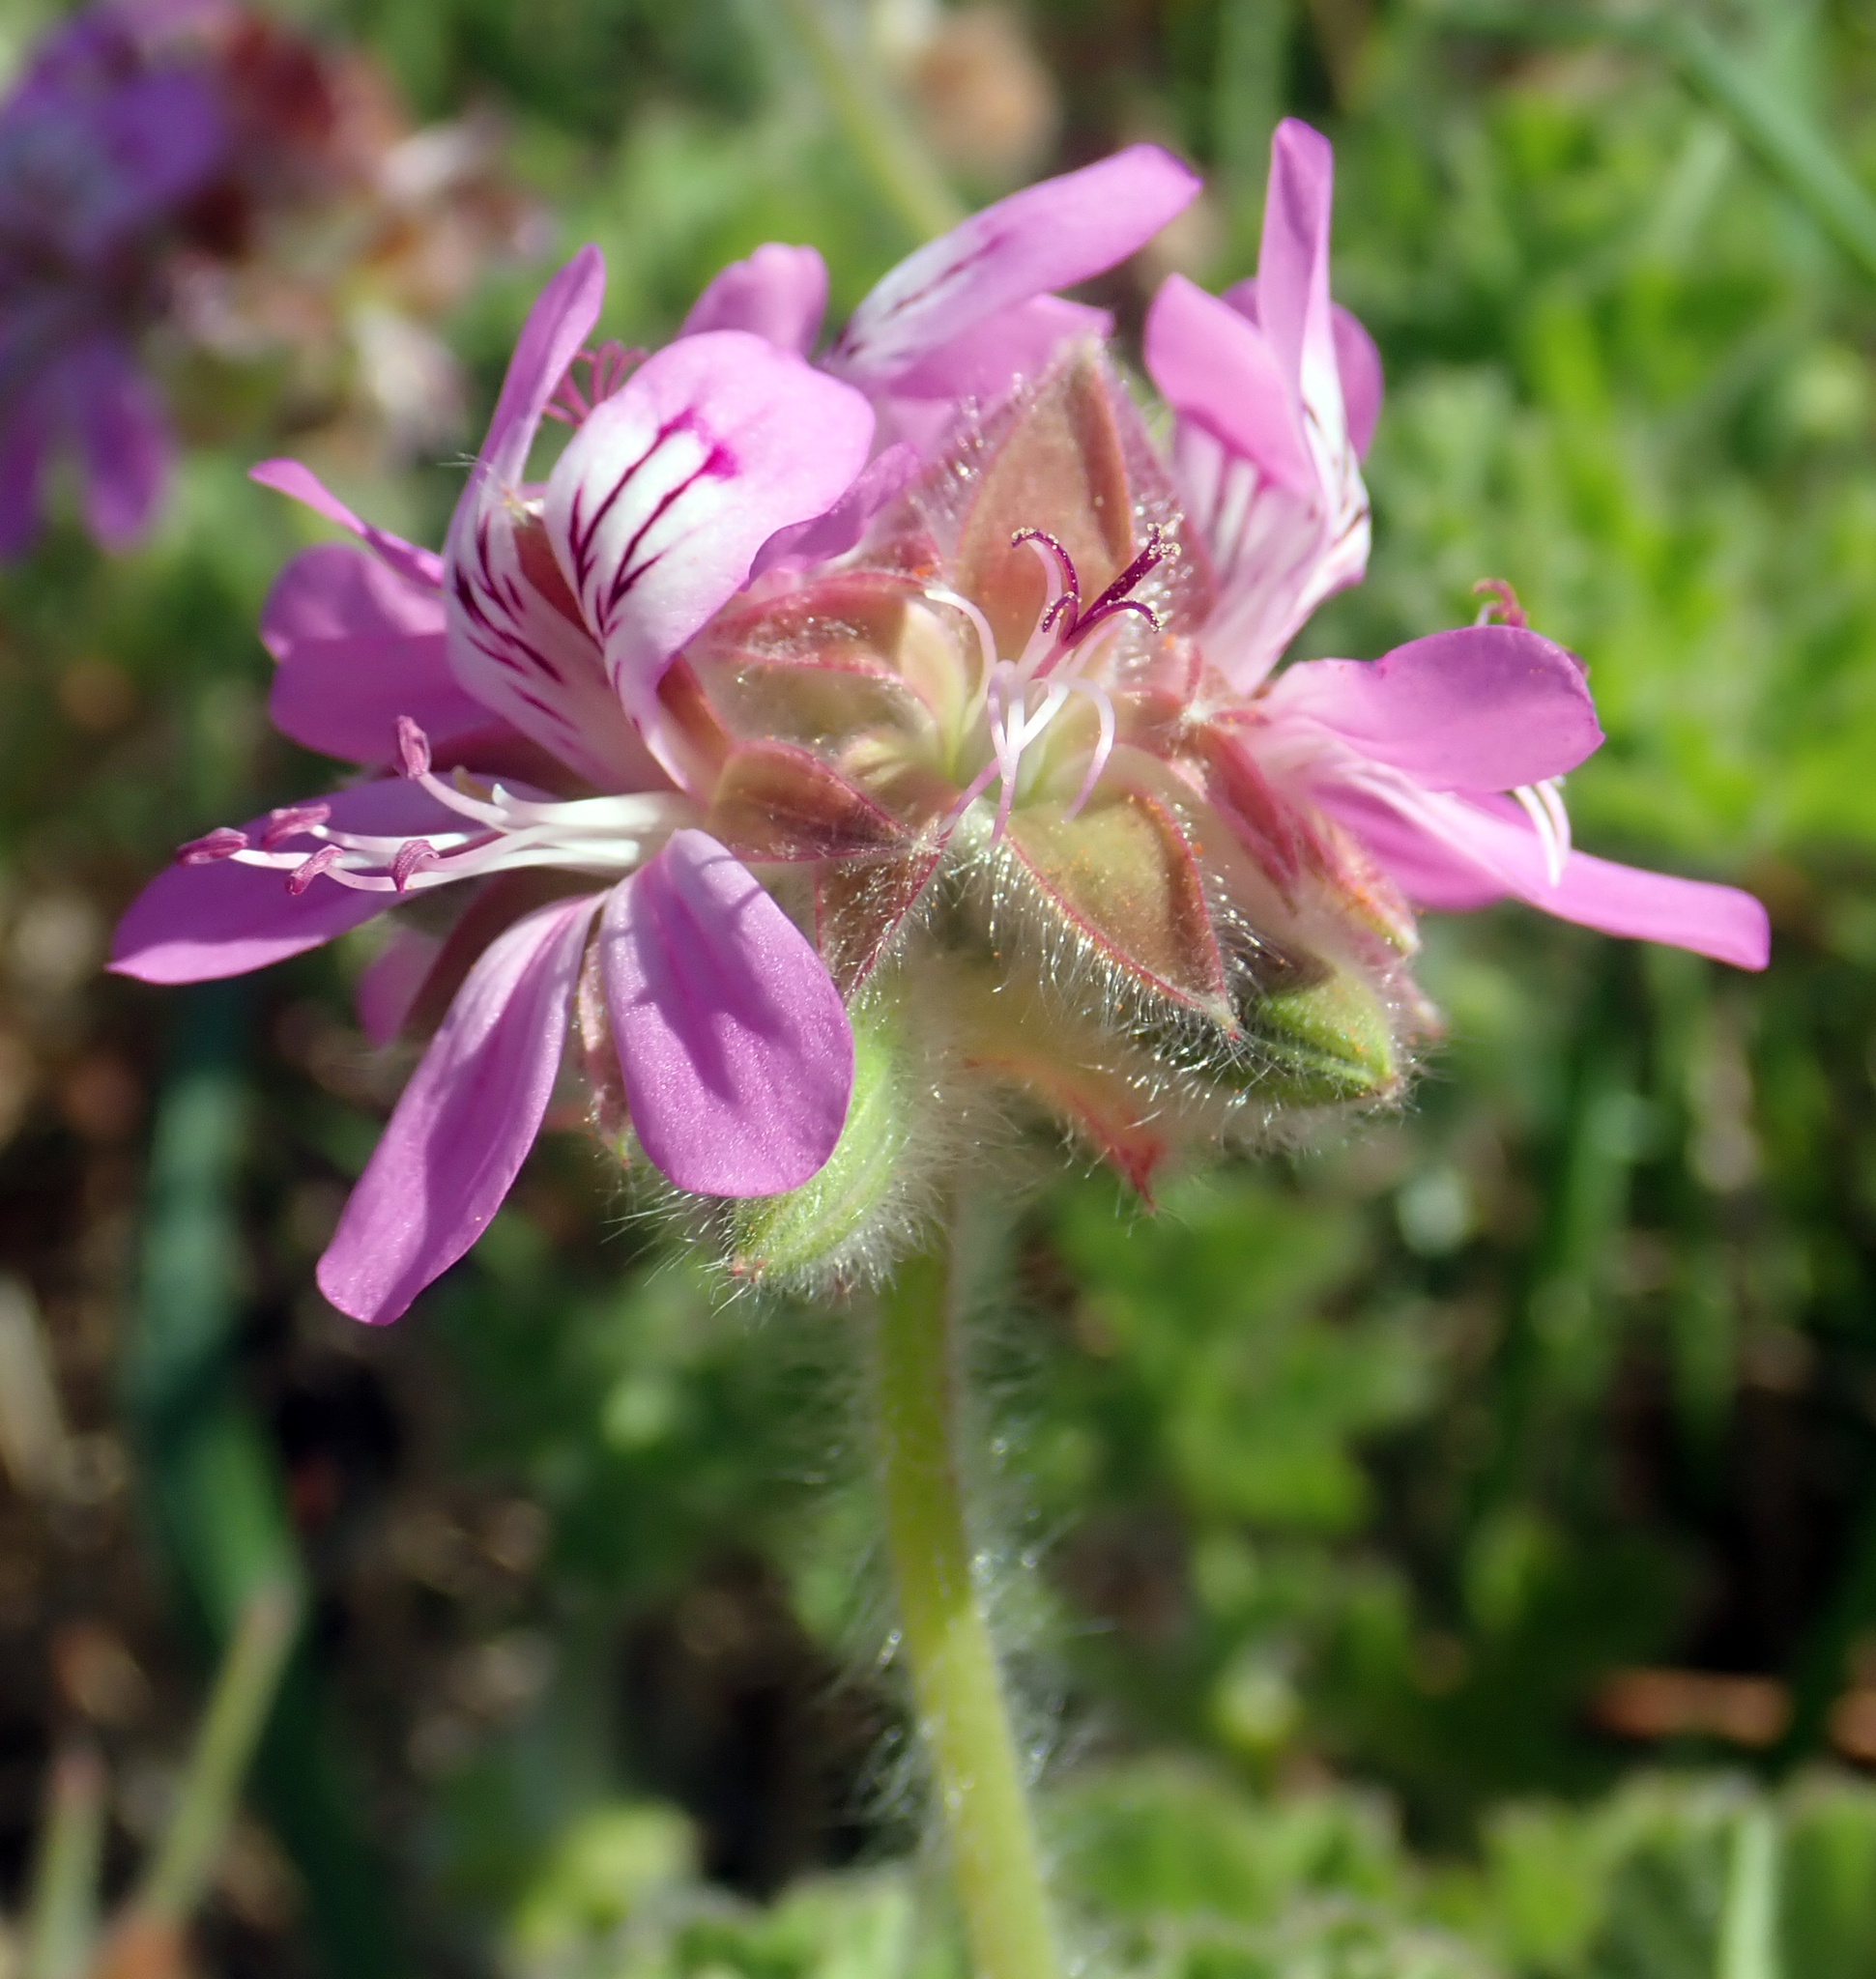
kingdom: Plantae
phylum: Tracheophyta
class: Magnoliopsida
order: Geraniales
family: Geraniaceae
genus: Pelargonium
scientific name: Pelargonium capitatum
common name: Rose scented geranium
